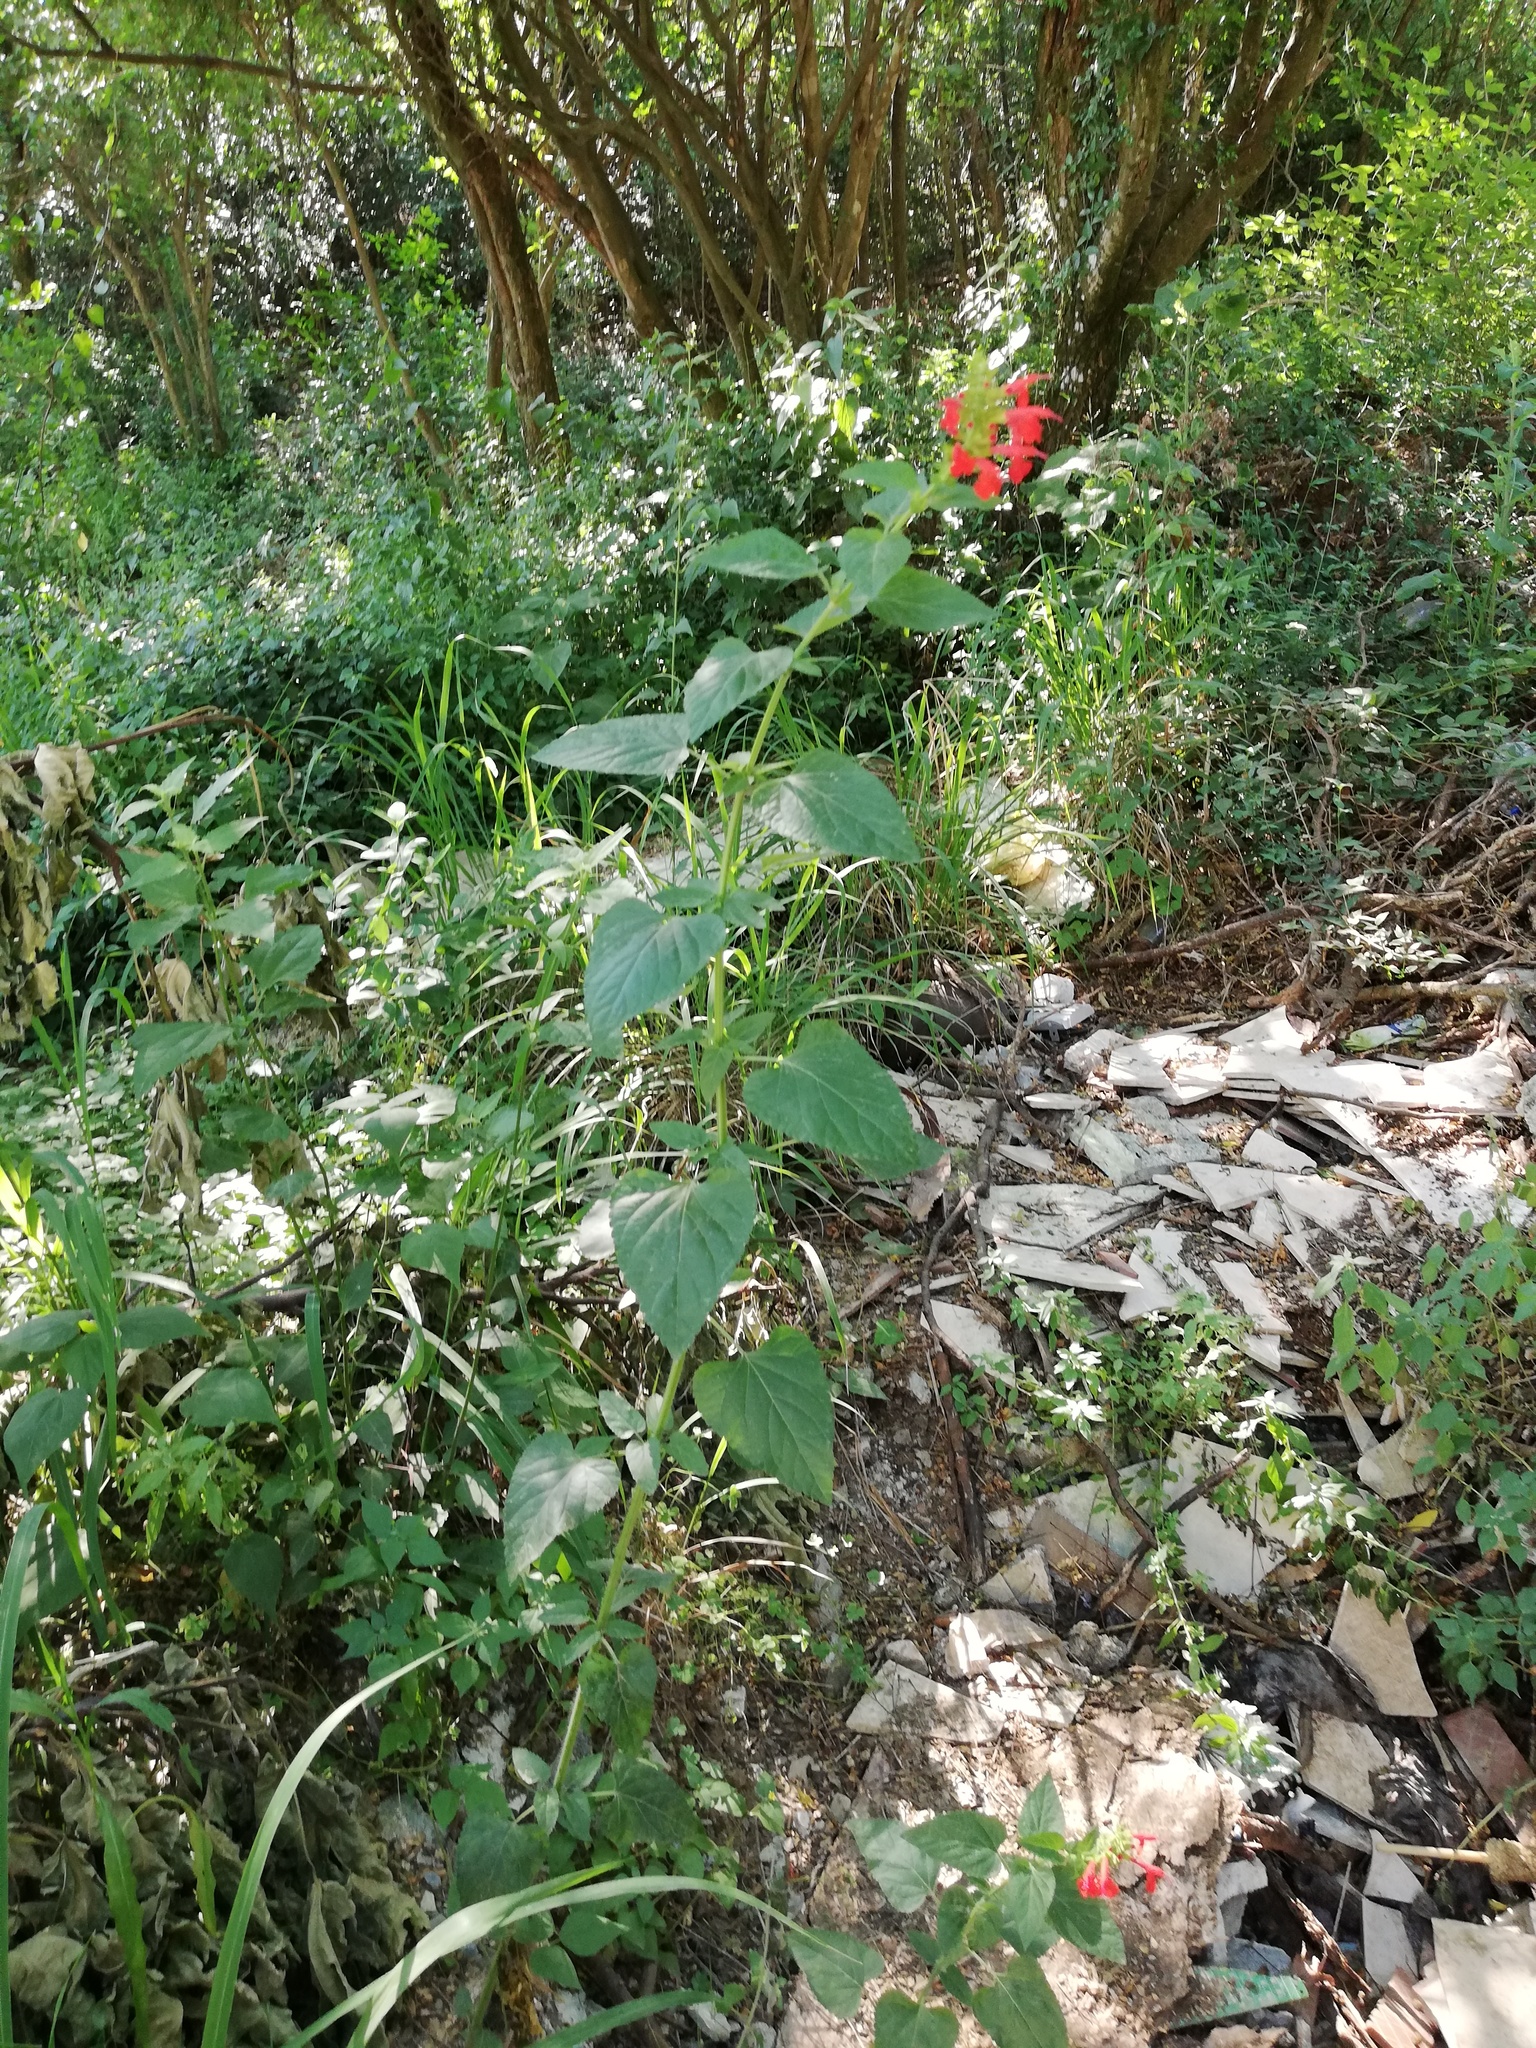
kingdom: Plantae
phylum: Tracheophyta
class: Magnoliopsida
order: Lamiales
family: Lamiaceae
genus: Salvia
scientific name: Salvia coccinea
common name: Blood sage
